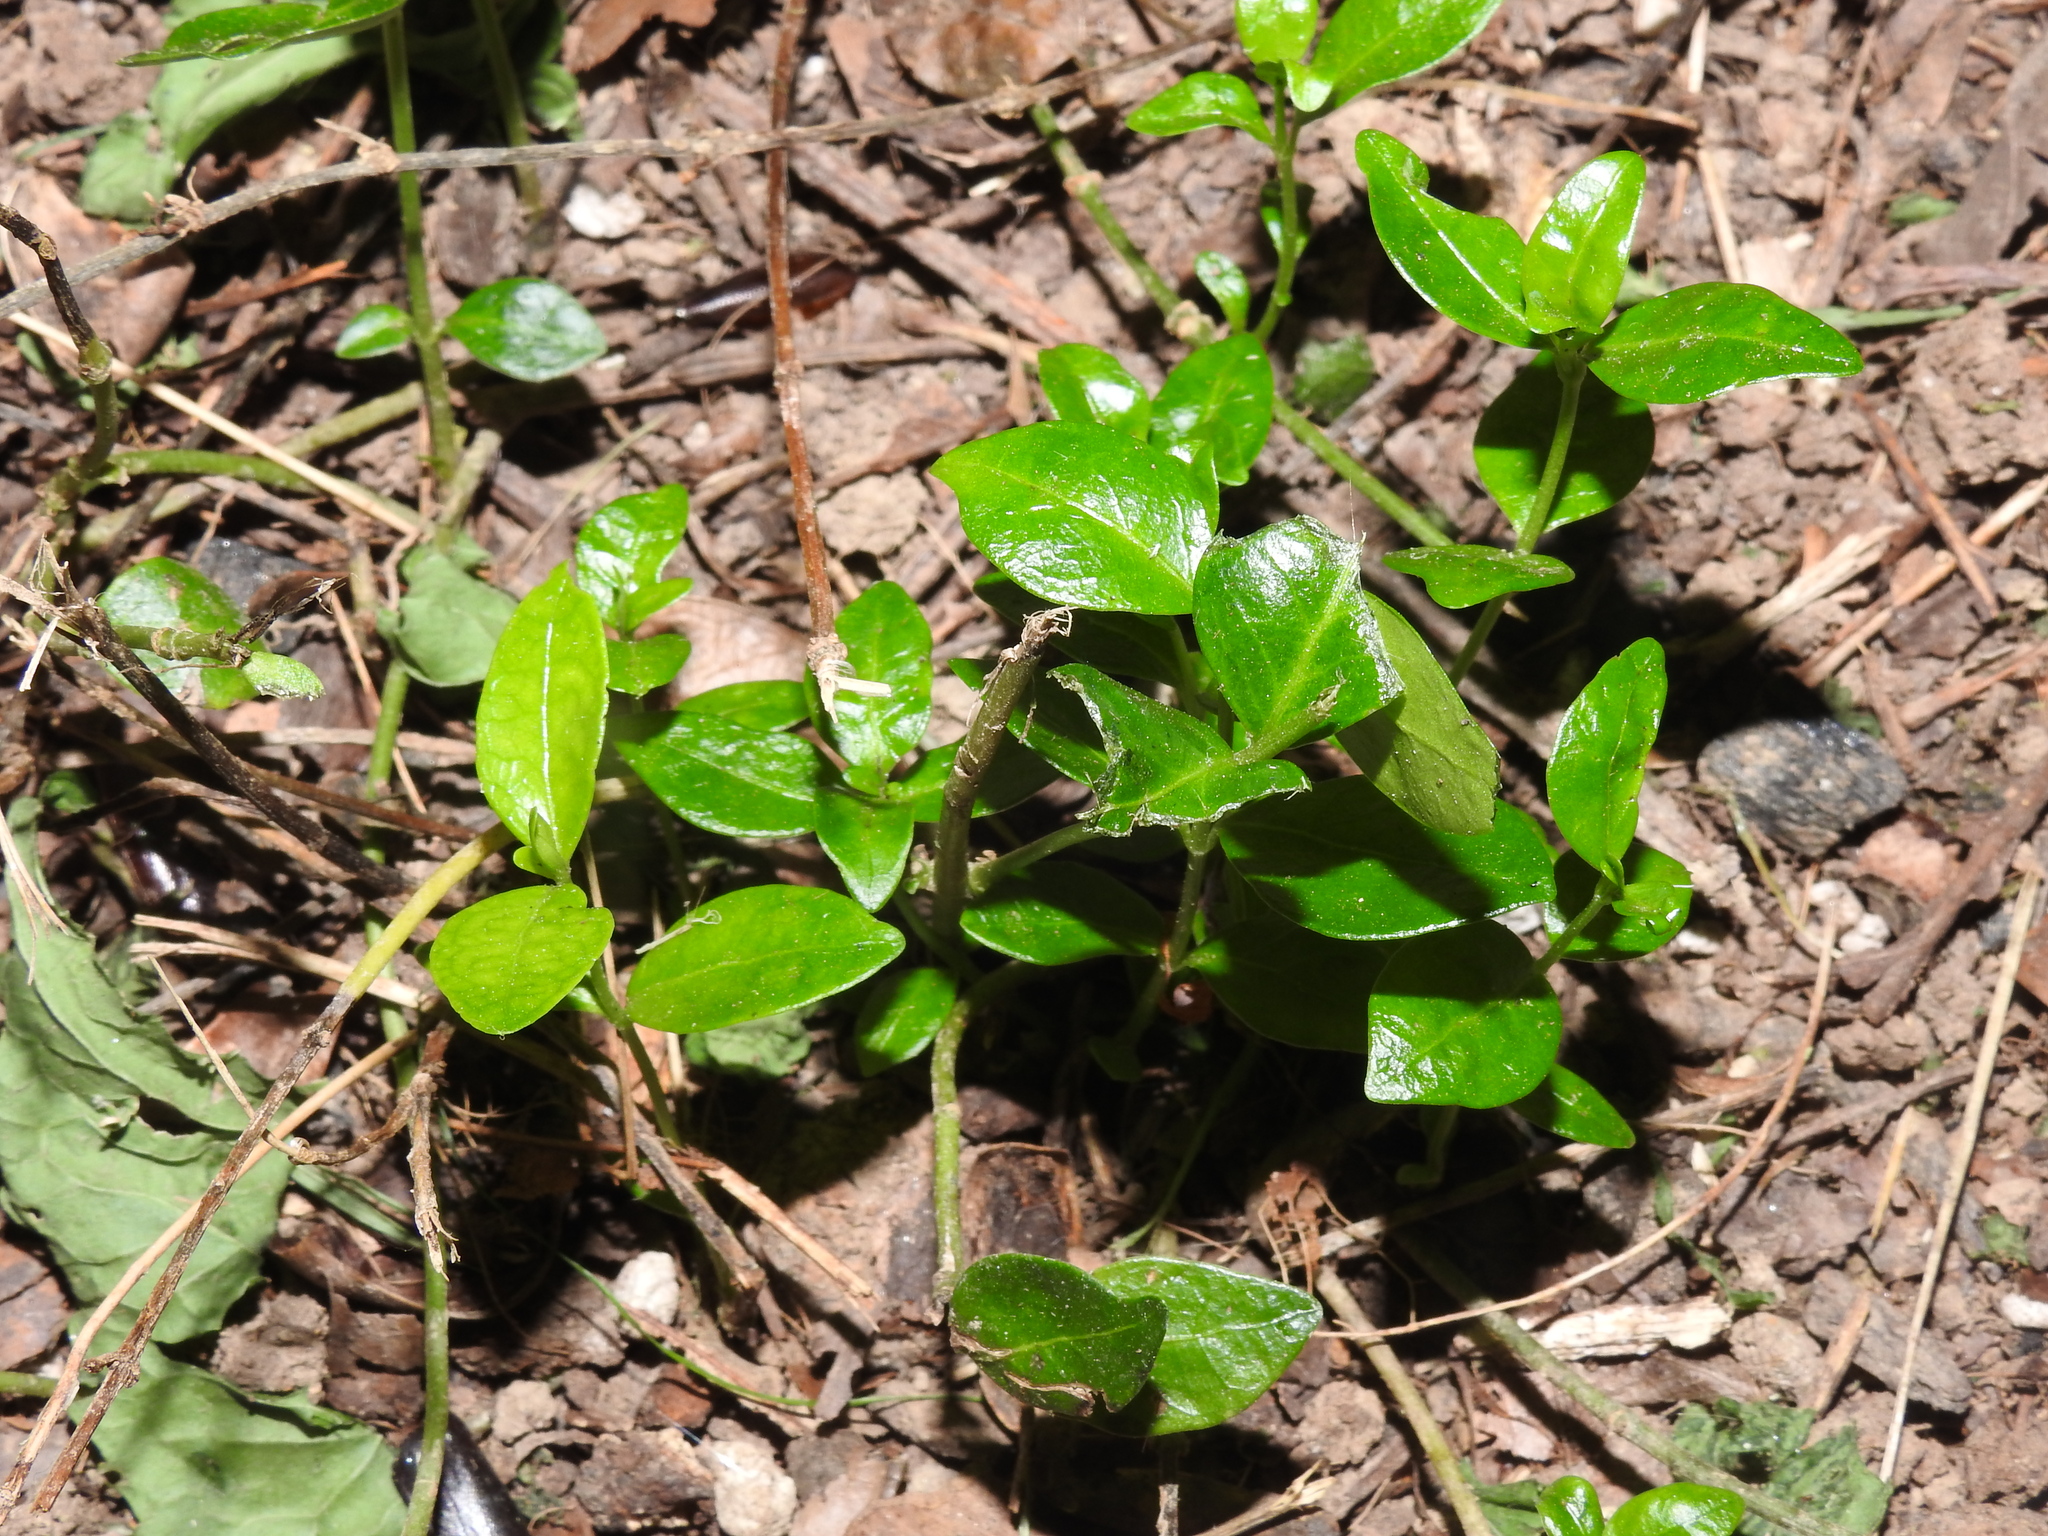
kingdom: Plantae
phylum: Tracheophyta
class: Magnoliopsida
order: Gentianales
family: Apocynaceae
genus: Vinca
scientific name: Vinca minor
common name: Lesser periwinkle
